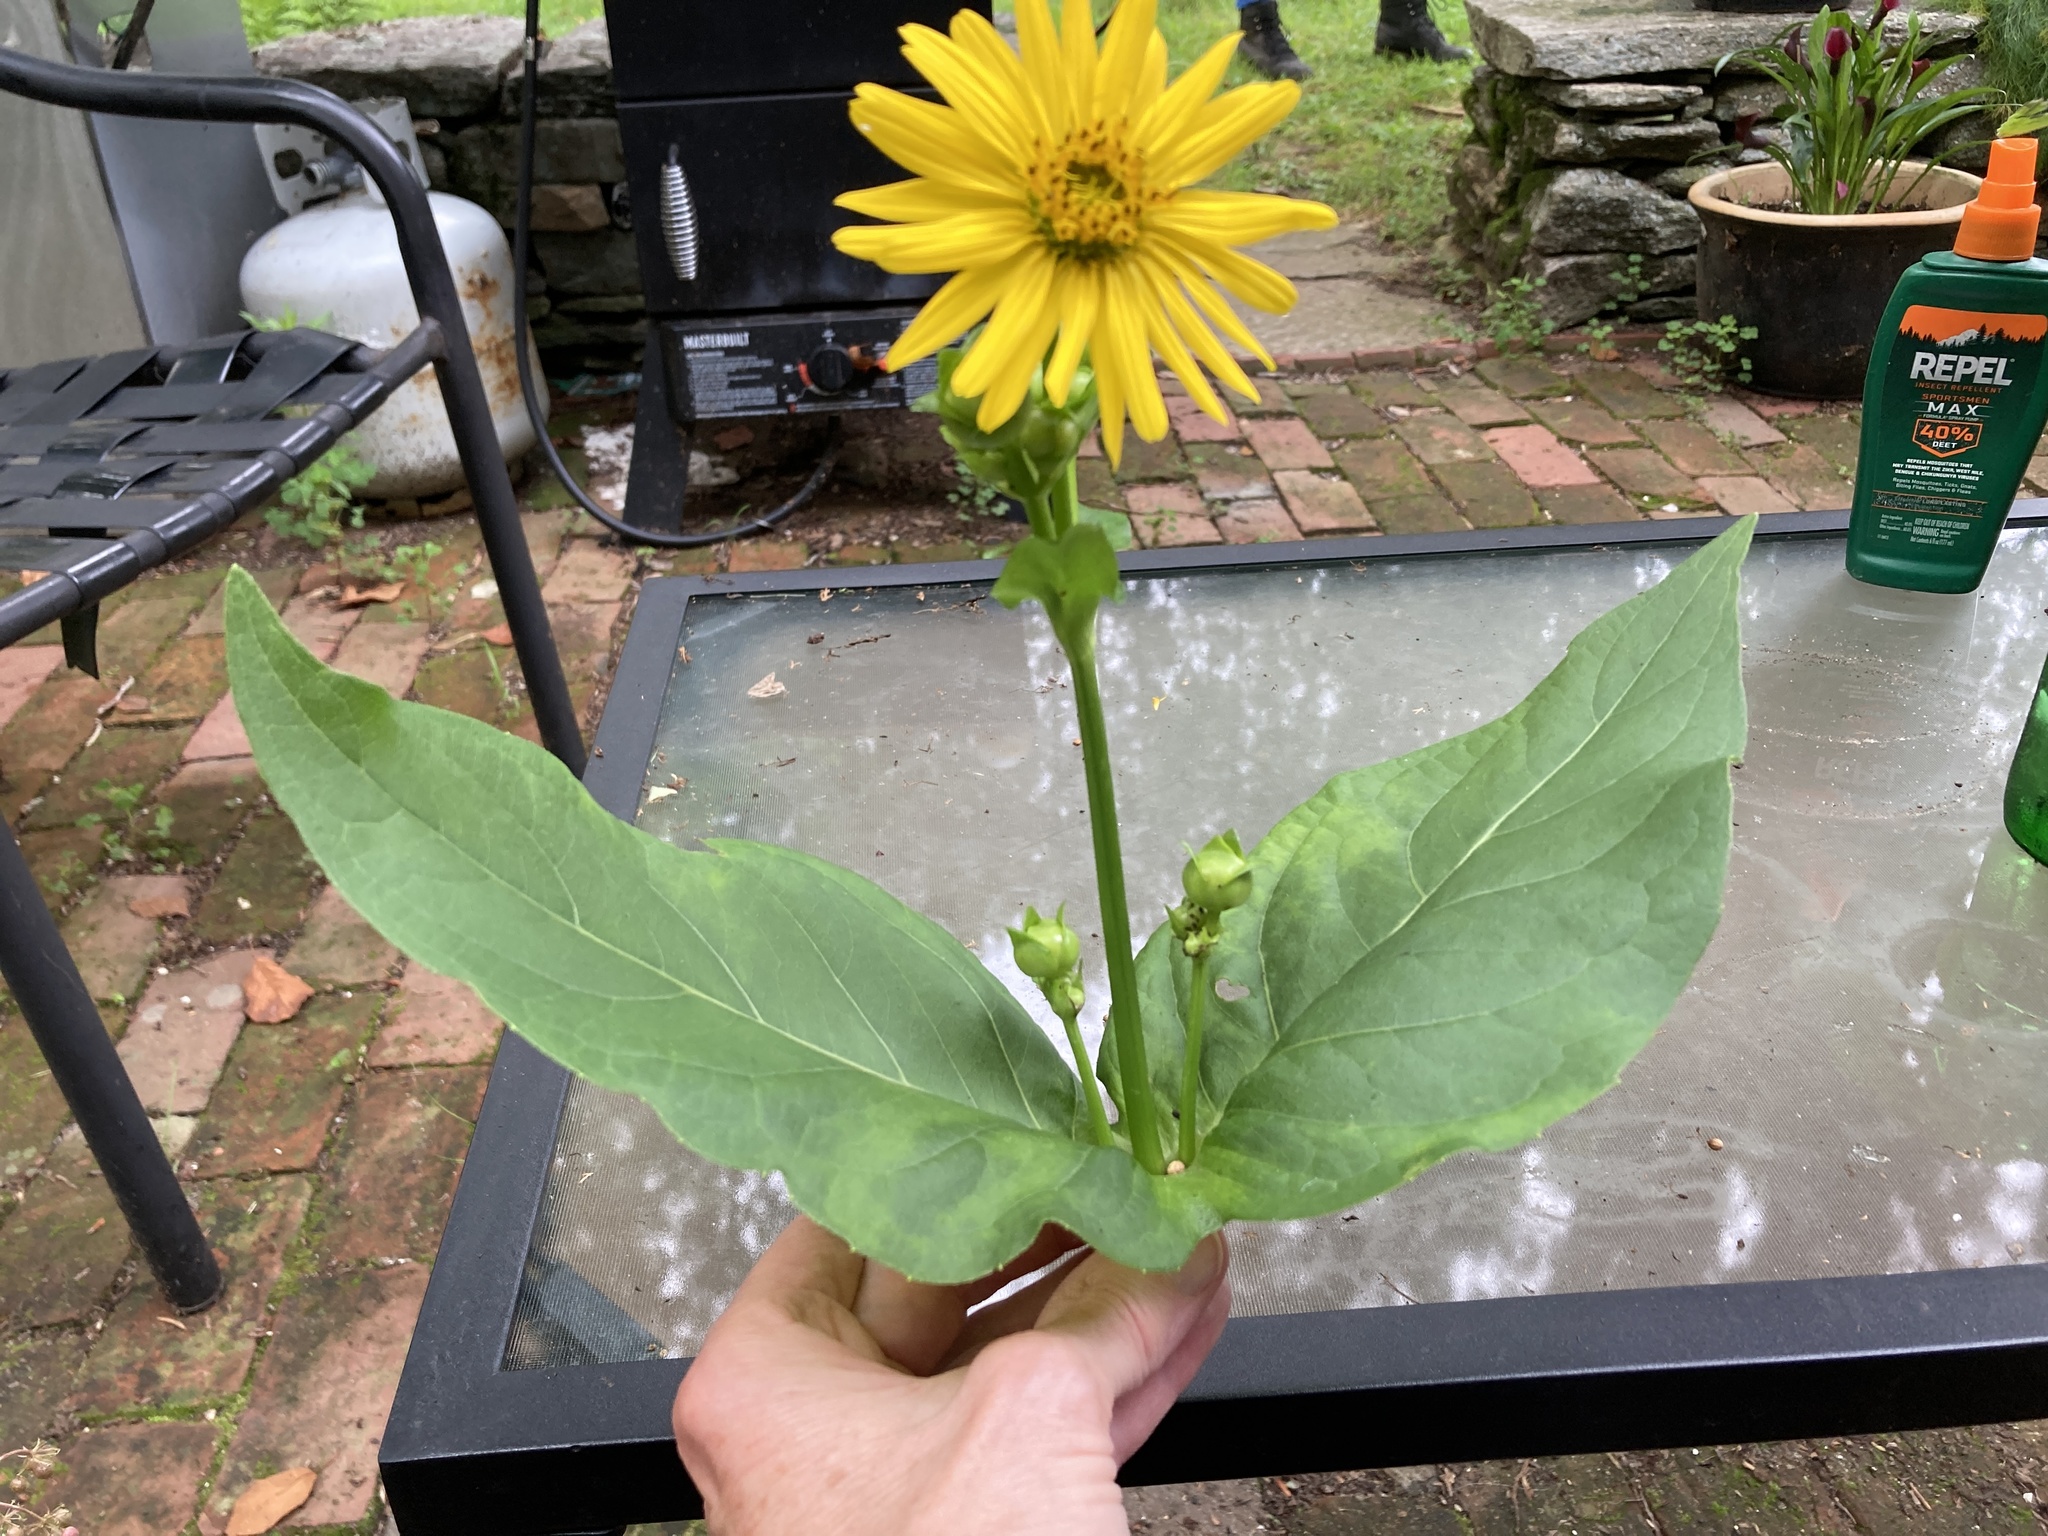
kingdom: Plantae
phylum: Tracheophyta
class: Magnoliopsida
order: Asterales
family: Asteraceae
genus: Silphium
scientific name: Silphium perfoliatum
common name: Cup-plant
